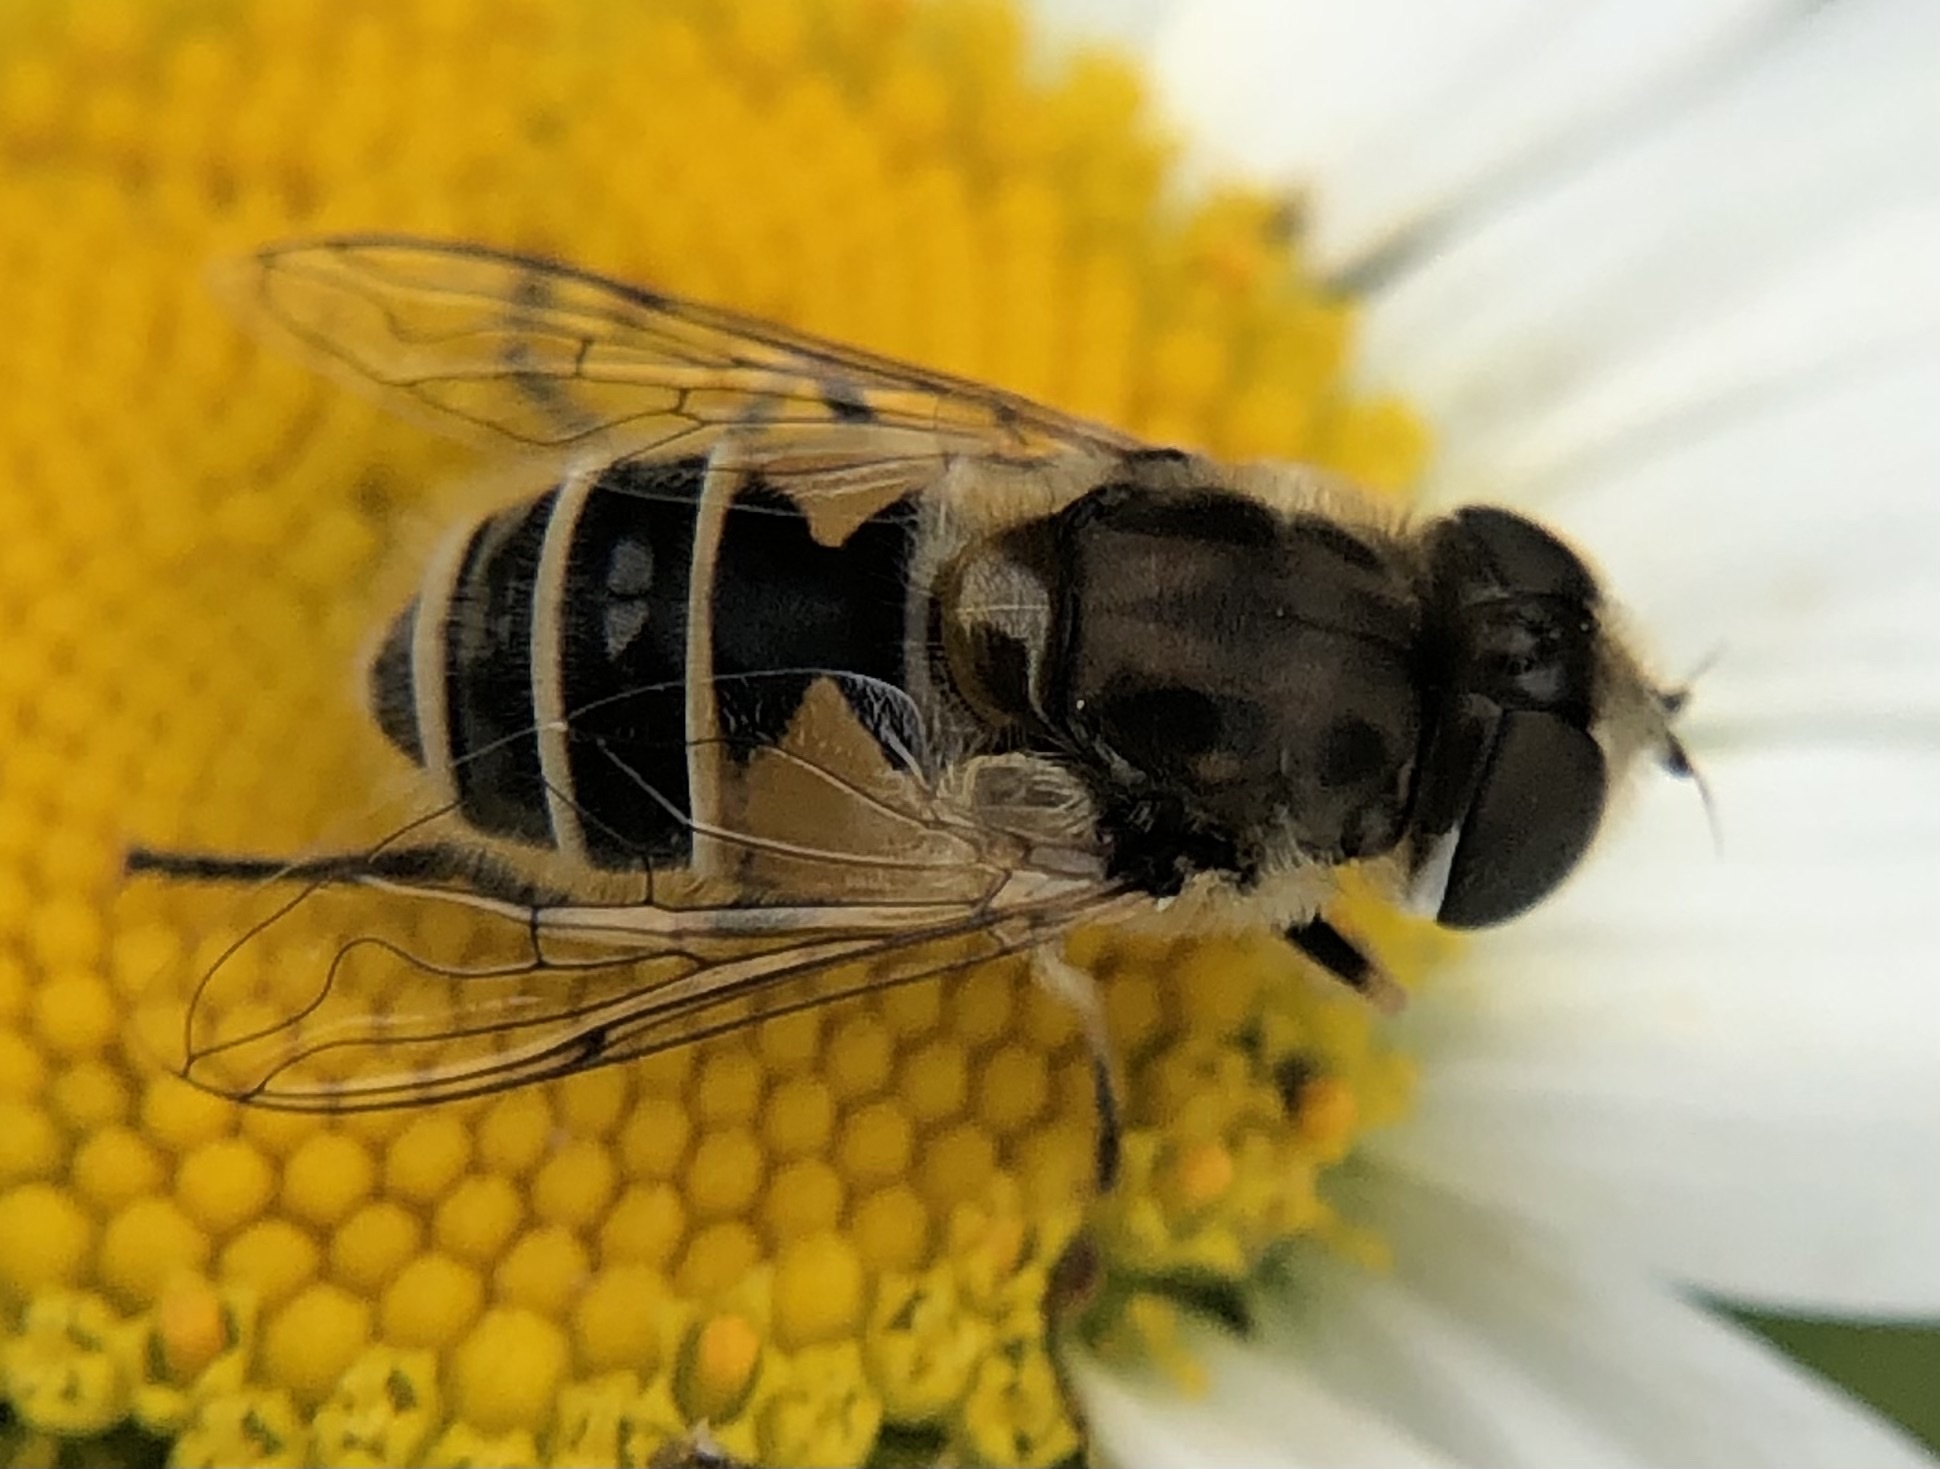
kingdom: Animalia
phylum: Arthropoda
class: Insecta
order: Diptera
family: Syrphidae
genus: Eristalis
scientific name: Eristalis arbustorum
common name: Hover fly
